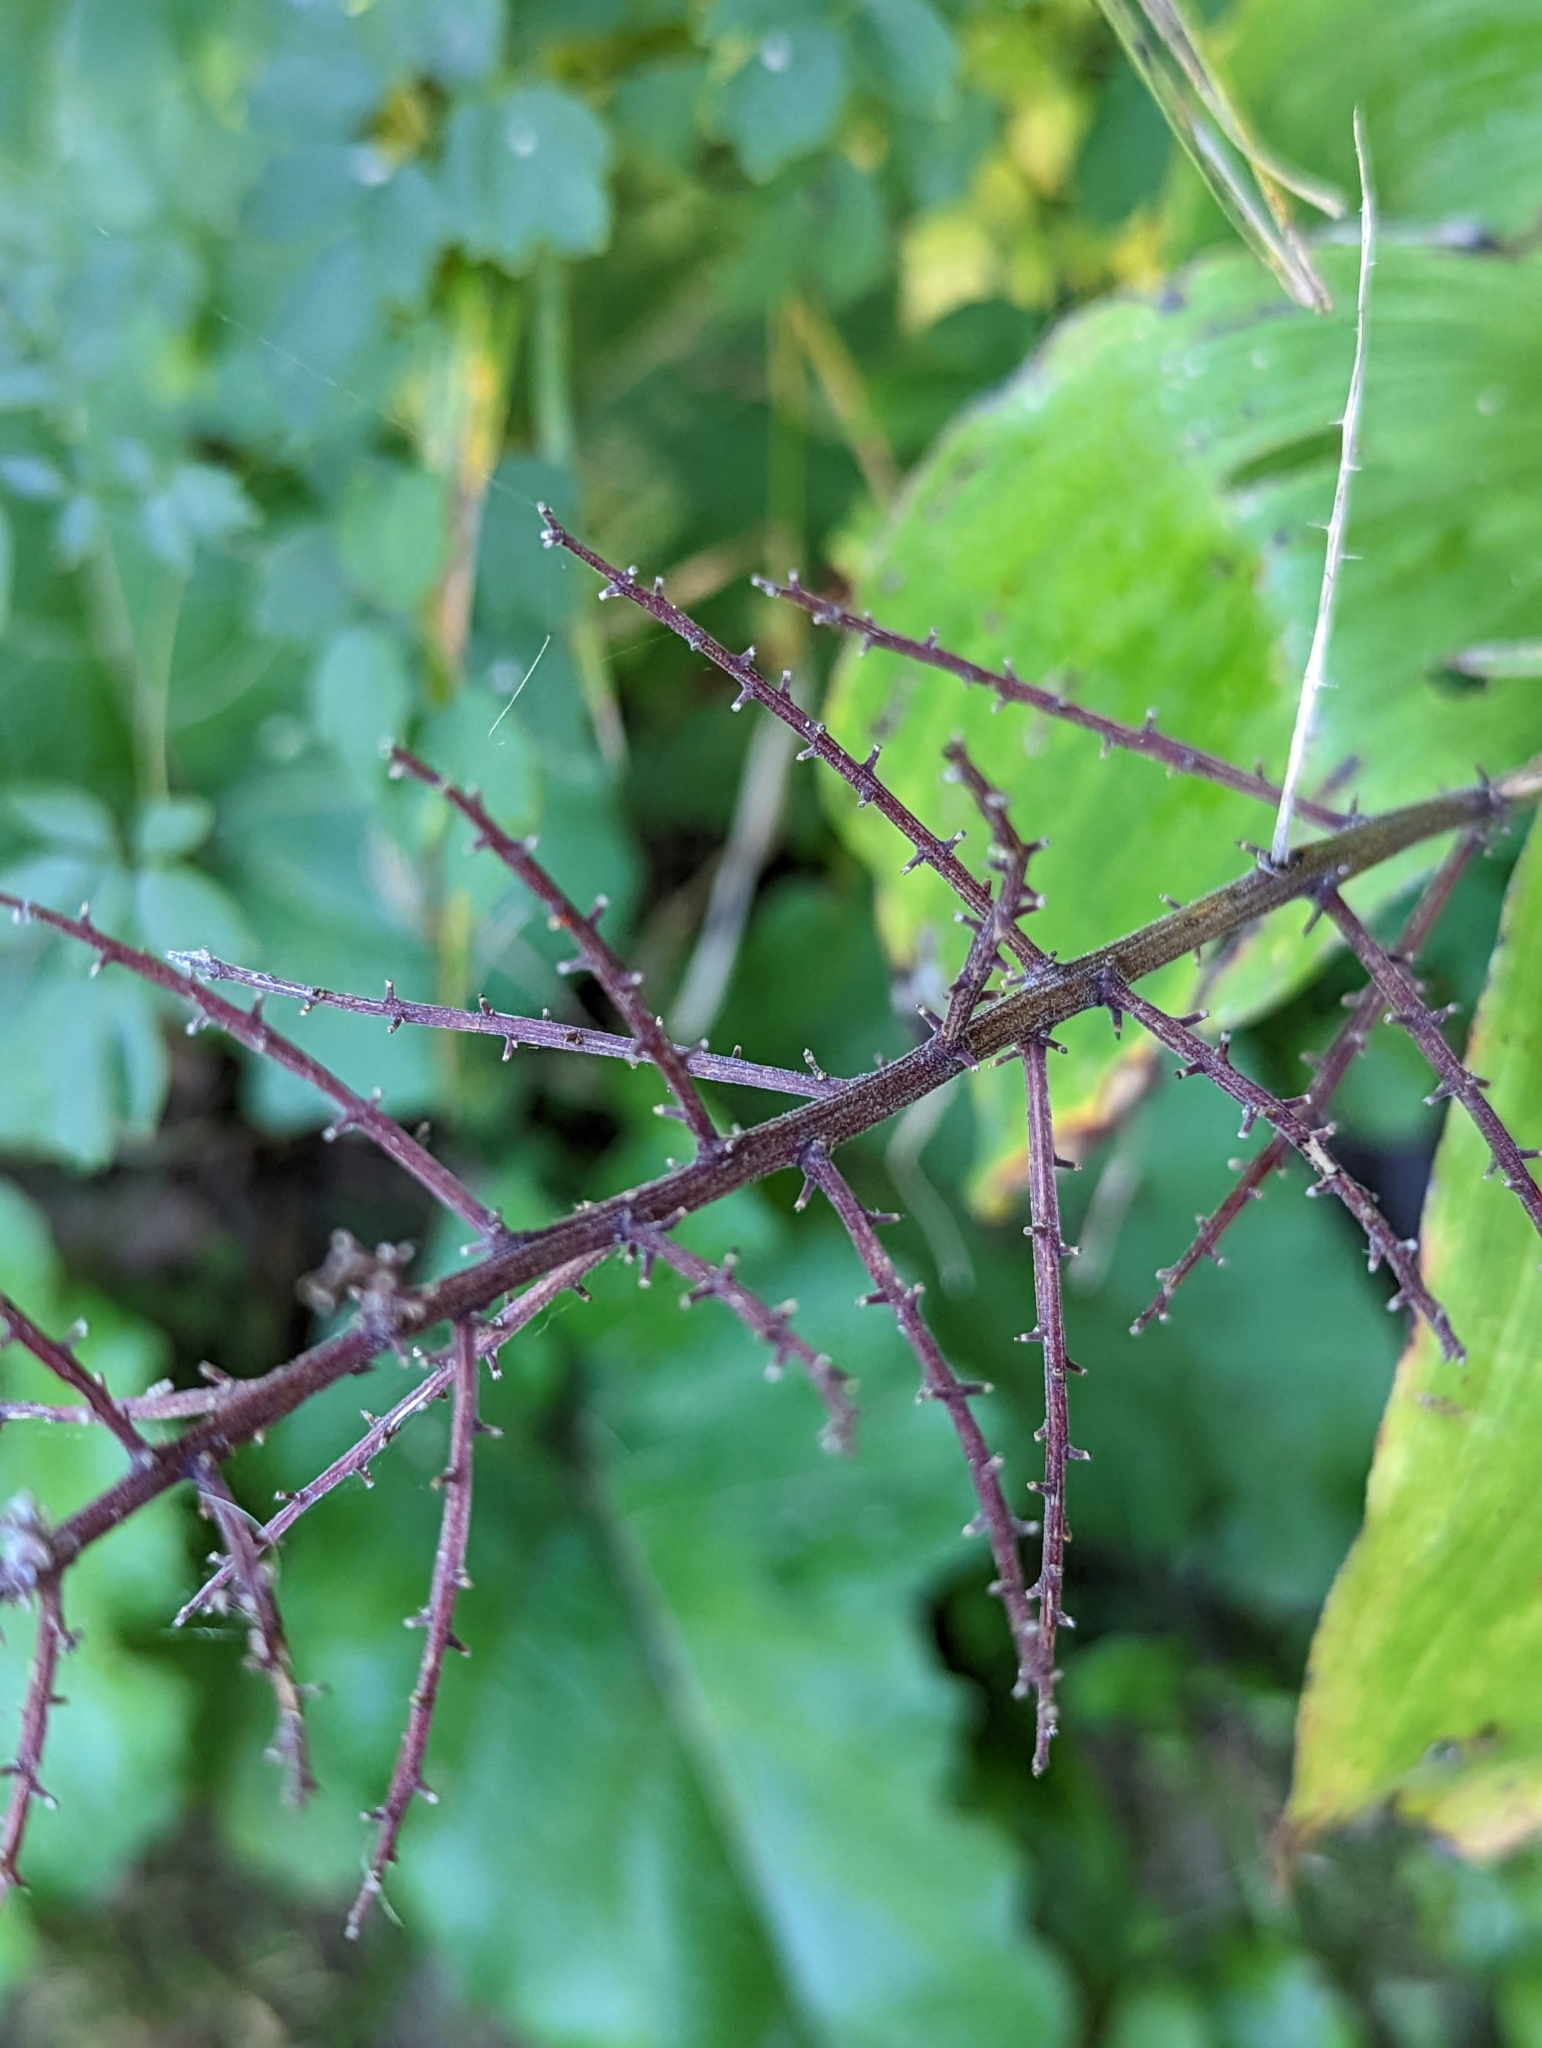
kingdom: Plantae
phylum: Tracheophyta
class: Liliopsida
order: Asparagales
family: Asparagaceae
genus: Maianthemum
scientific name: Maianthemum racemosum
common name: False spikenard
